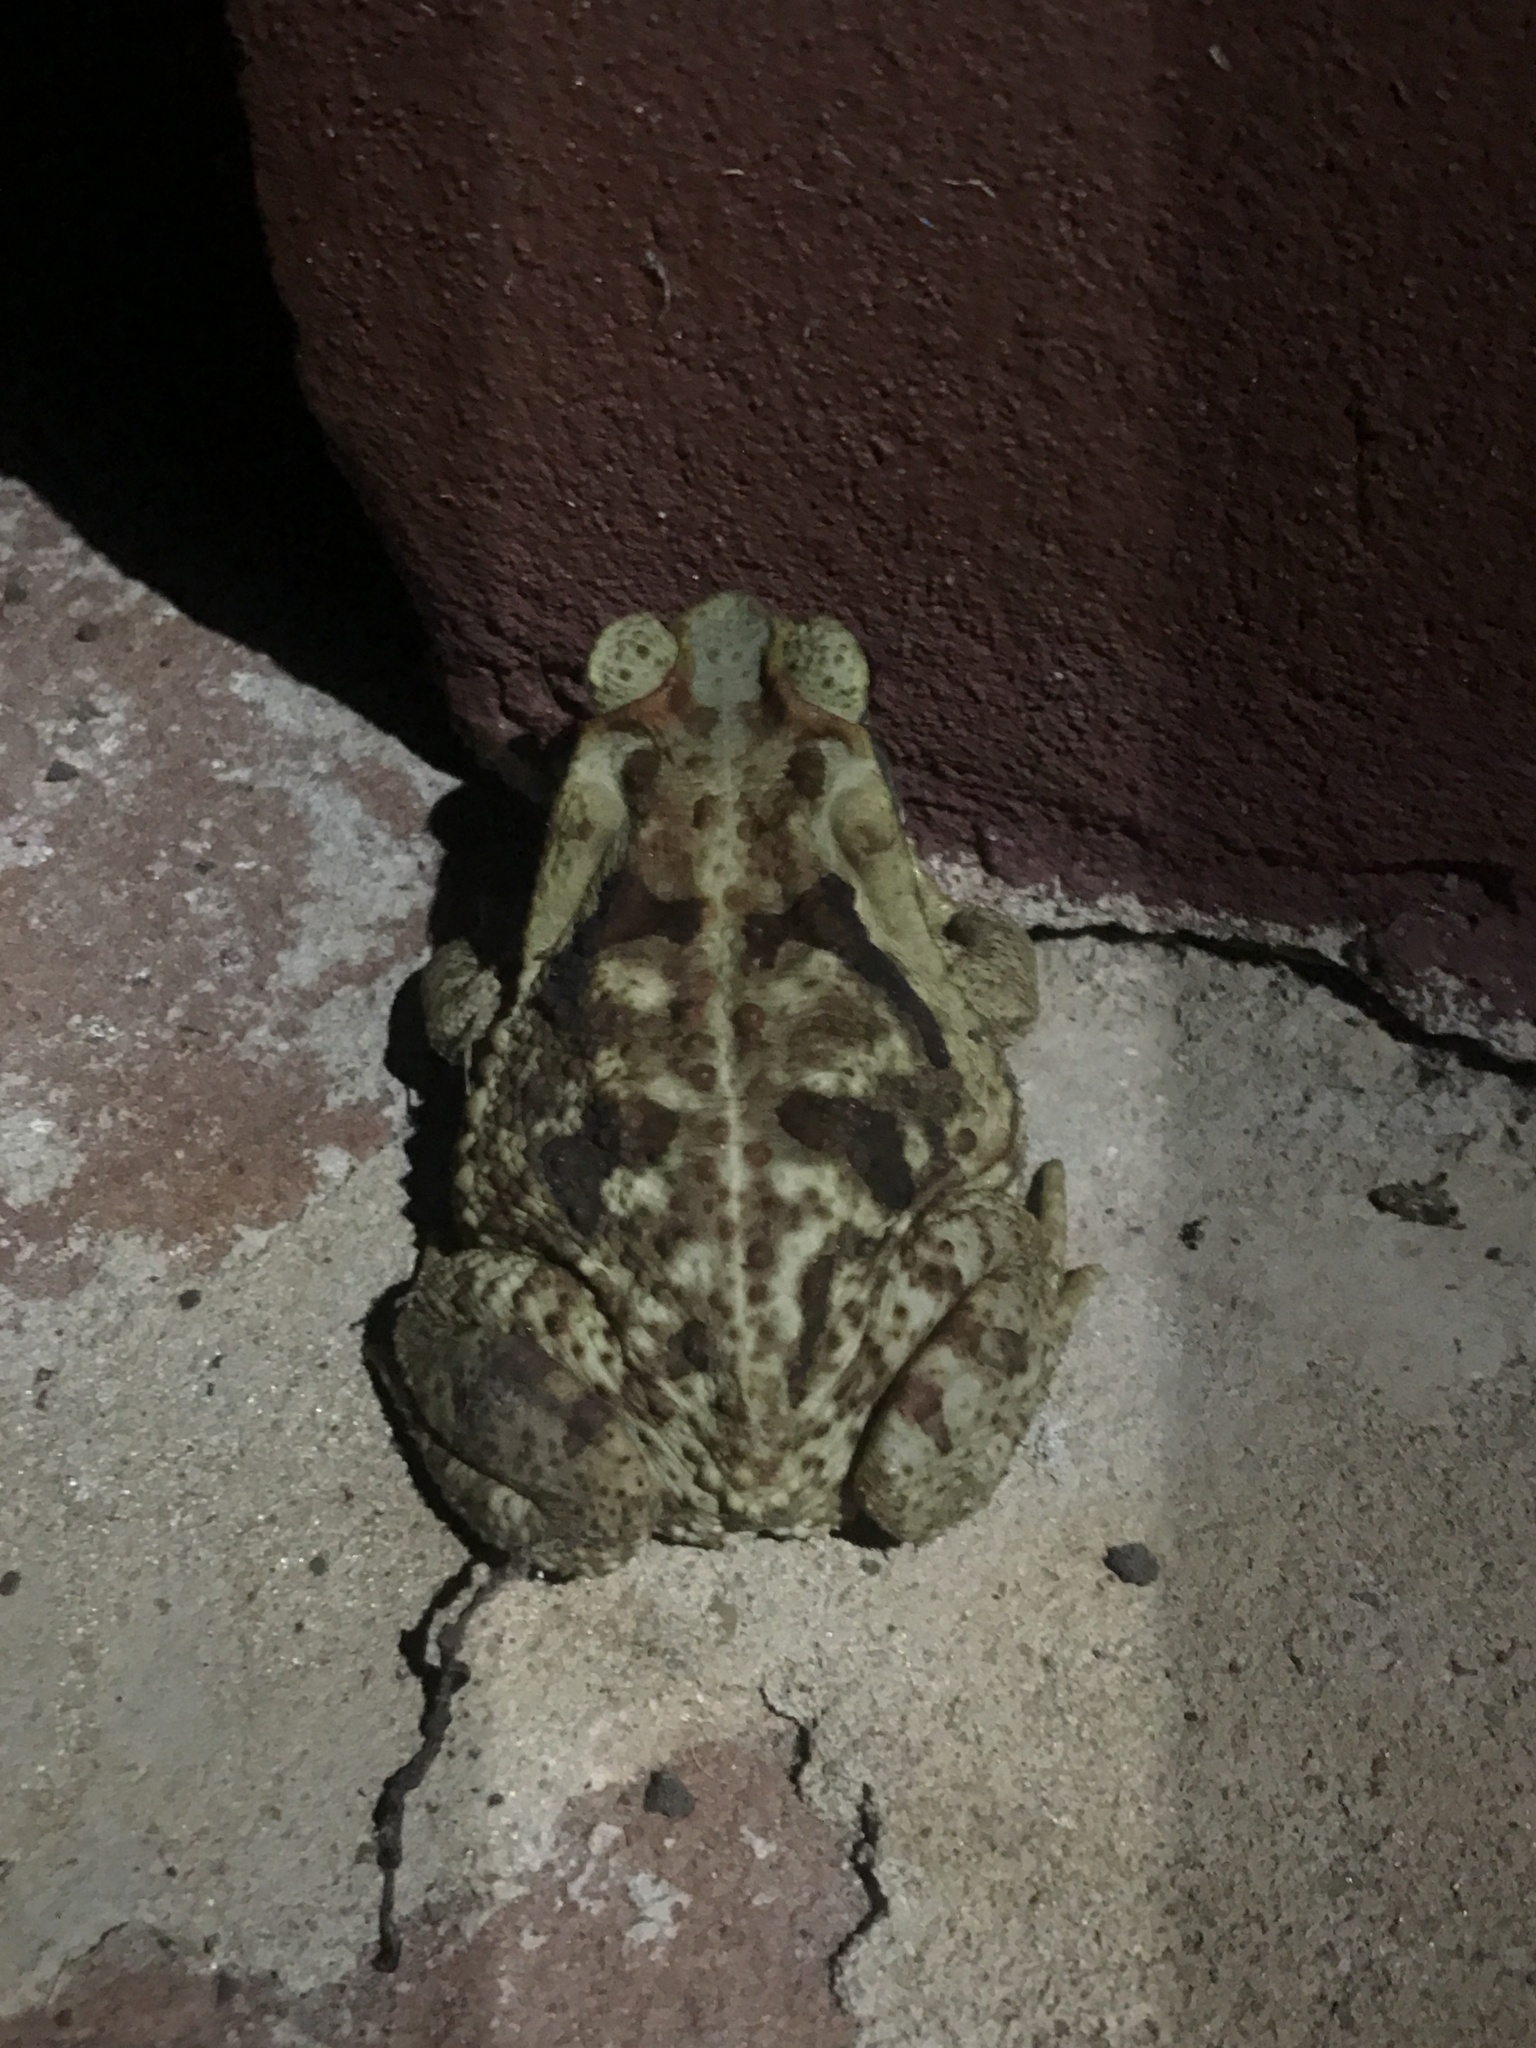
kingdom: Animalia
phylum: Chordata
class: Amphibia
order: Anura
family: Bufonidae
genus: Rhinella
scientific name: Rhinella diptycha
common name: Cope's toad
